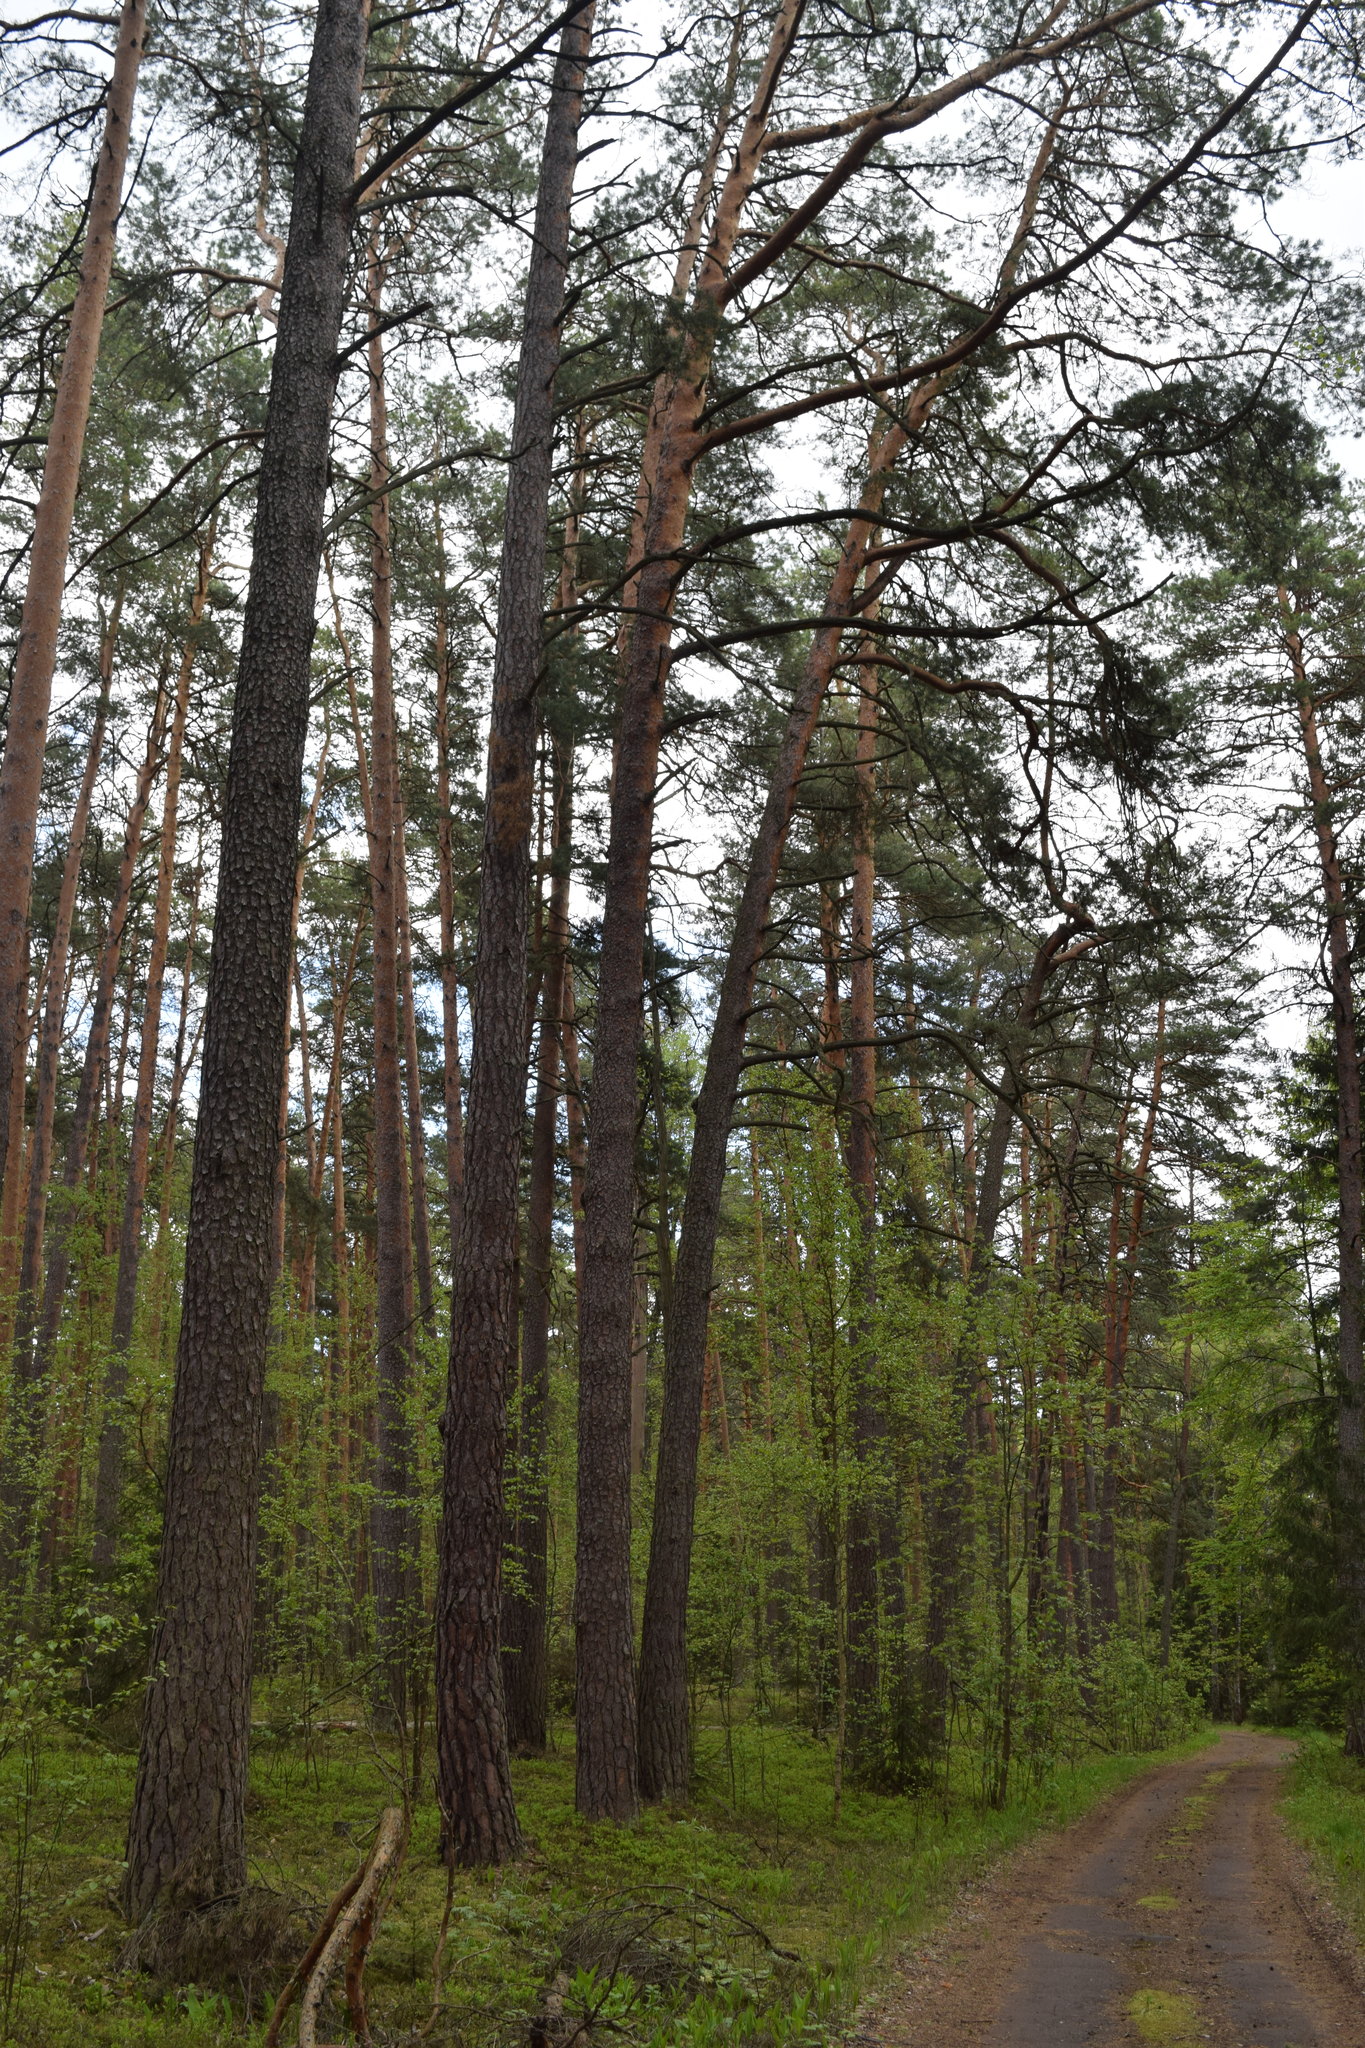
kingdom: Plantae
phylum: Tracheophyta
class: Pinopsida
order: Pinales
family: Pinaceae
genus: Pinus
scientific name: Pinus sylvestris
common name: Scots pine
